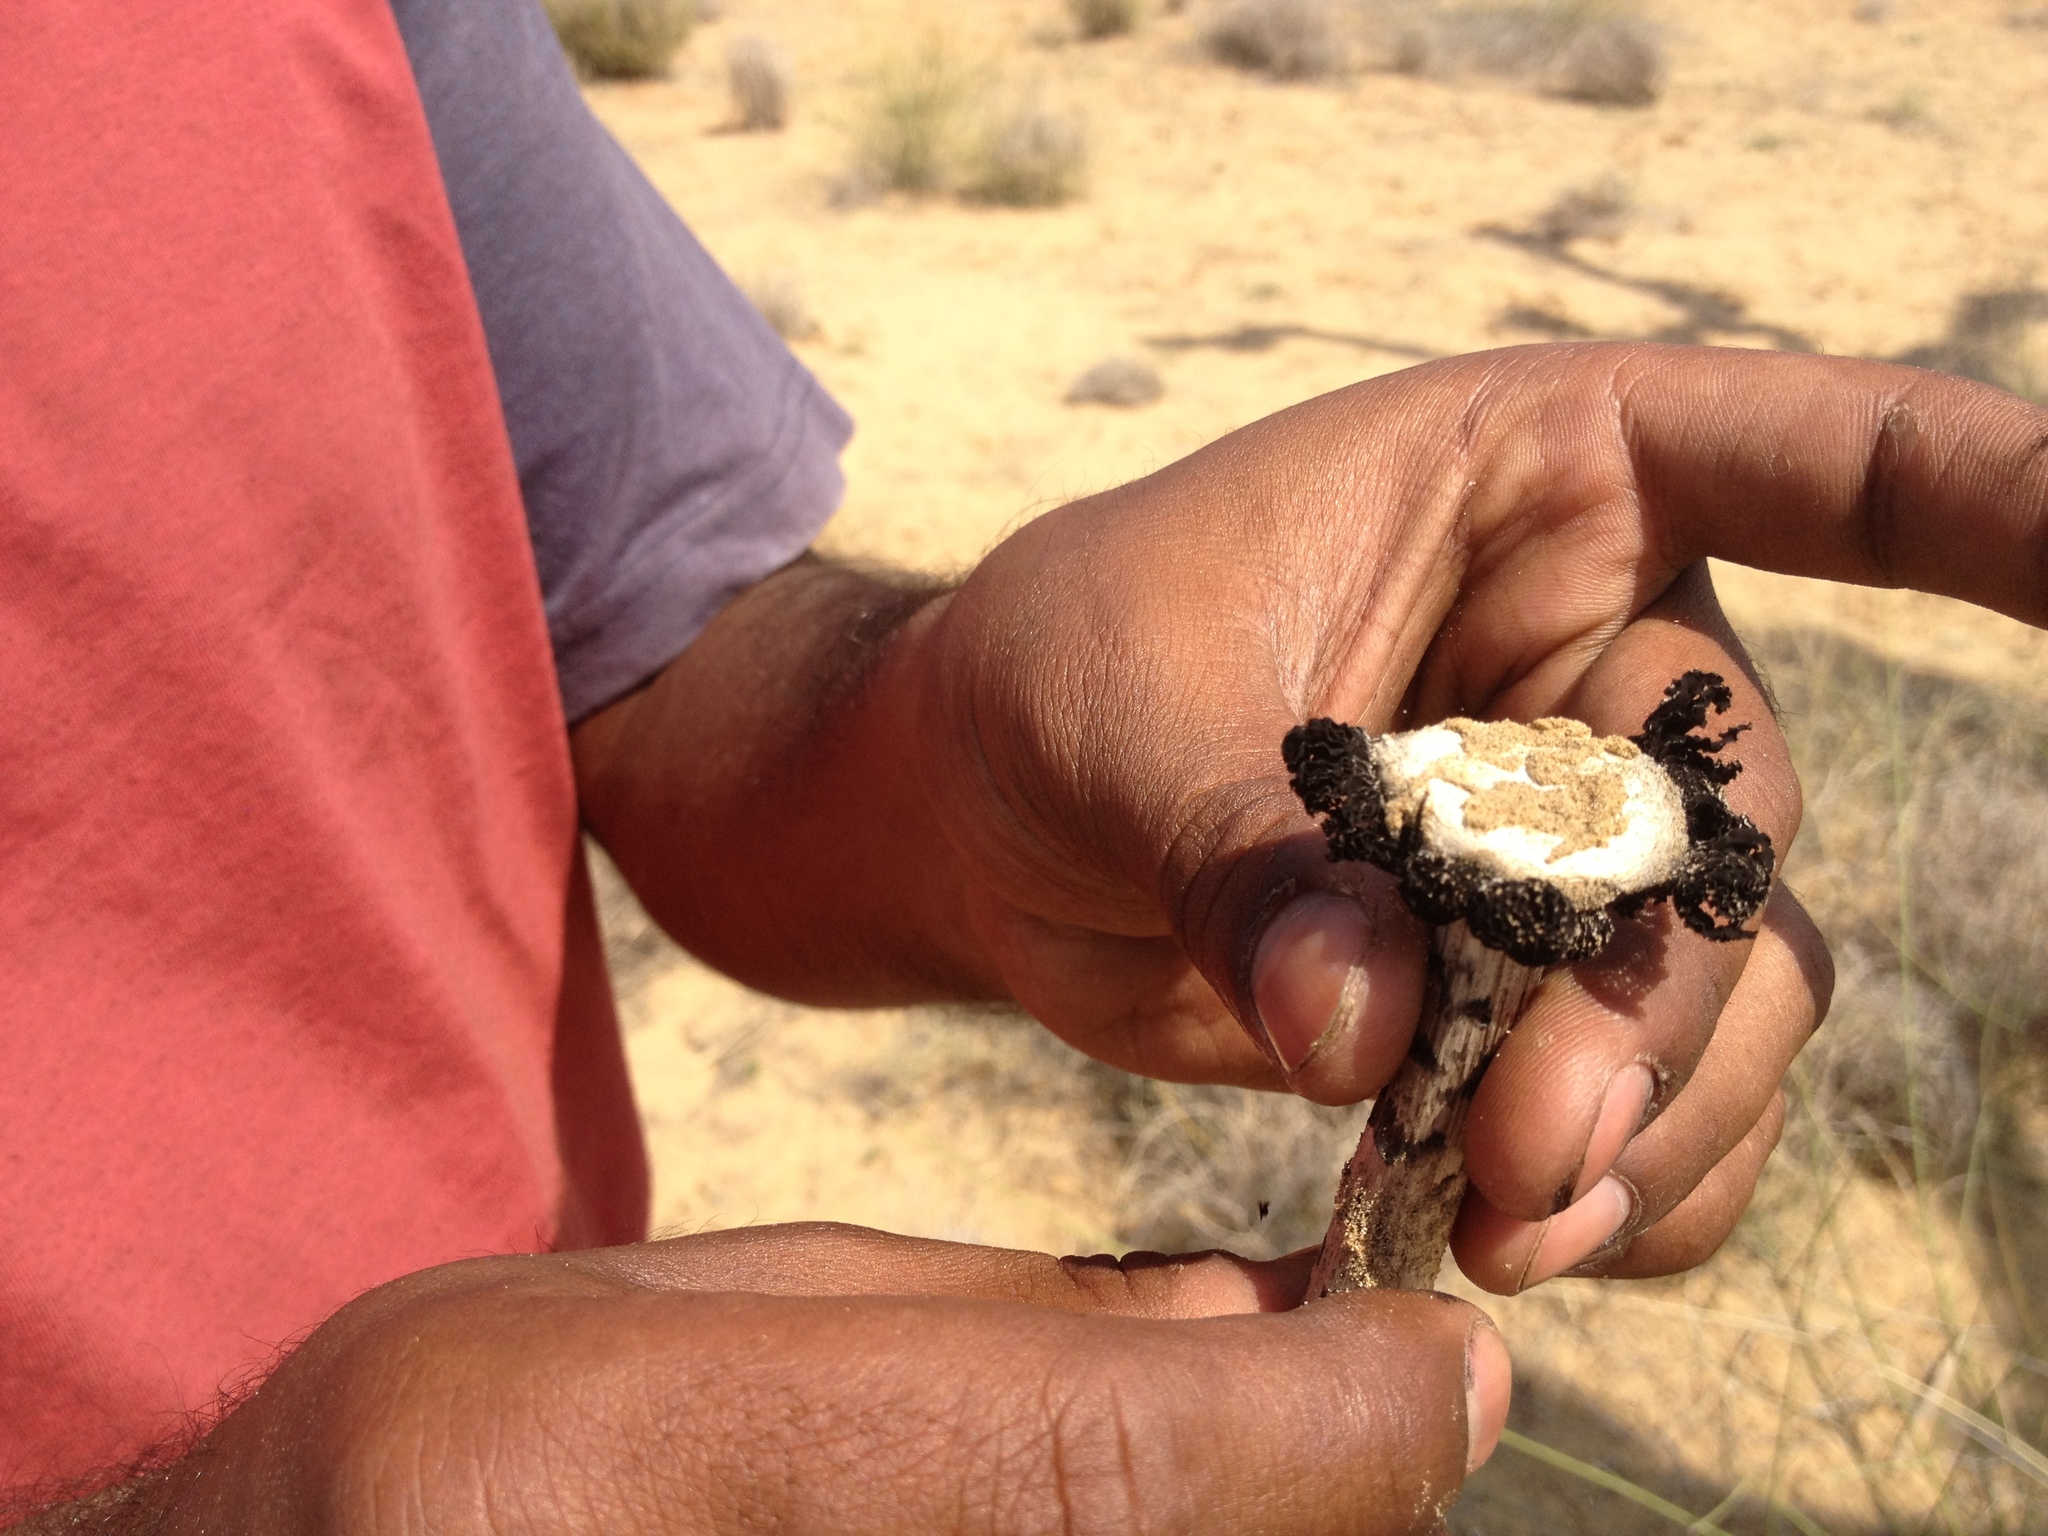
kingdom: Fungi
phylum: Basidiomycota
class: Agaricomycetes
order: Agaricales
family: Agaricaceae
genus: Montagnea
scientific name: Montagnea arenaria
